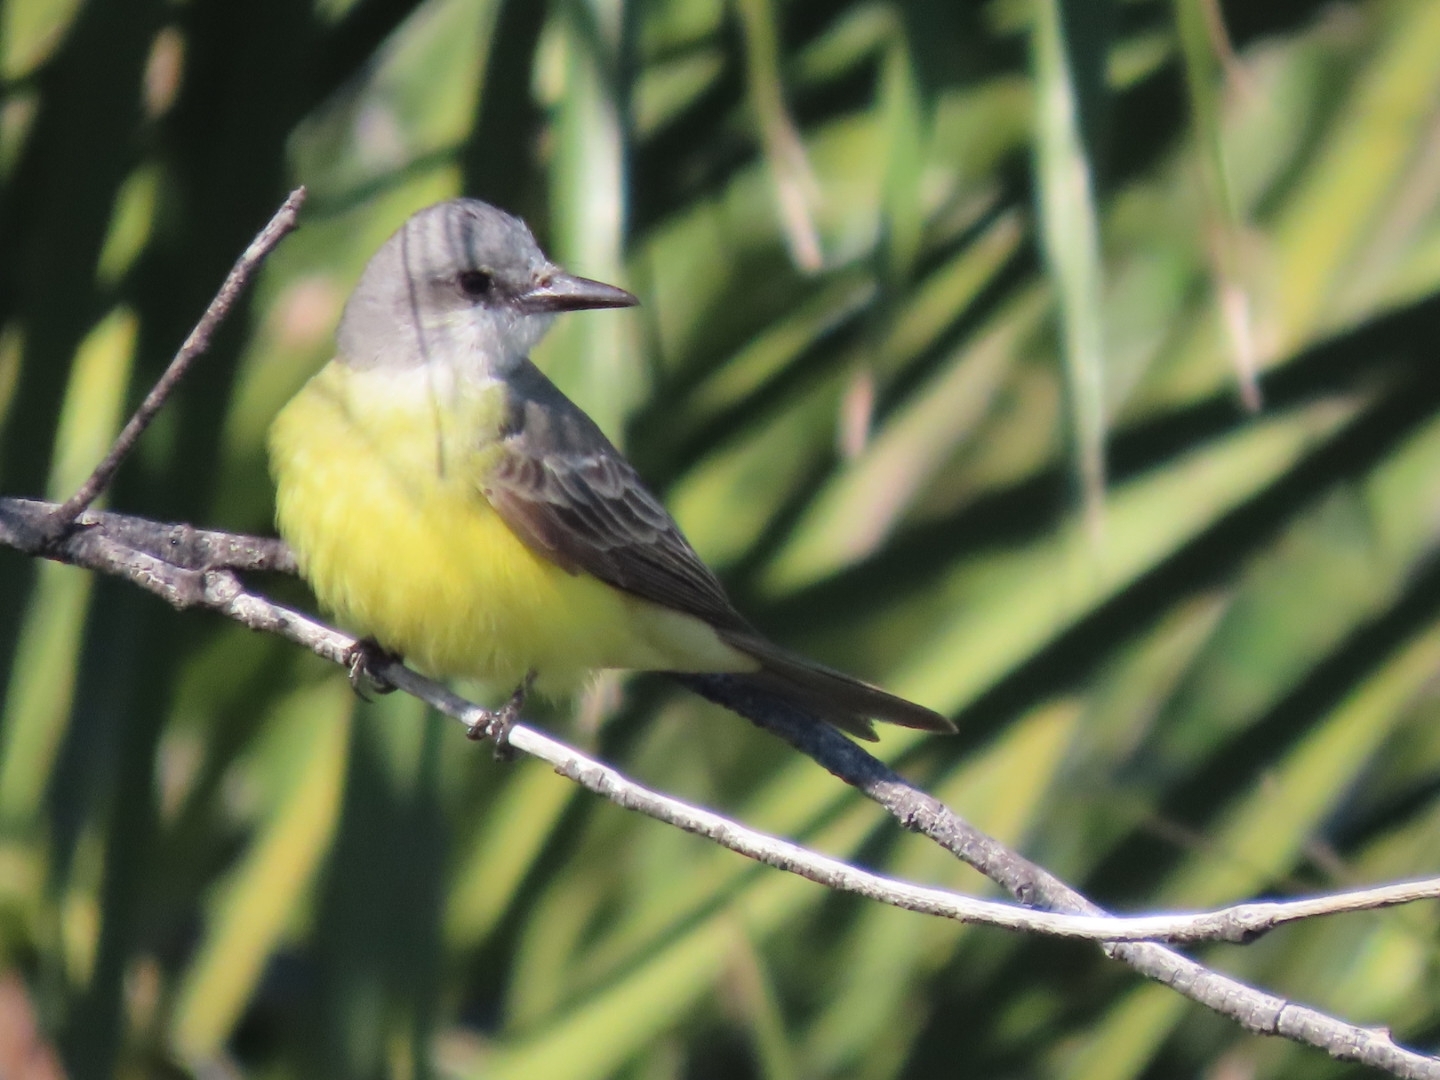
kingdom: Animalia
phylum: Chordata
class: Aves
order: Passeriformes
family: Tyrannidae
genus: Tyrannus
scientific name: Tyrannus melancholicus
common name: Tropical kingbird
